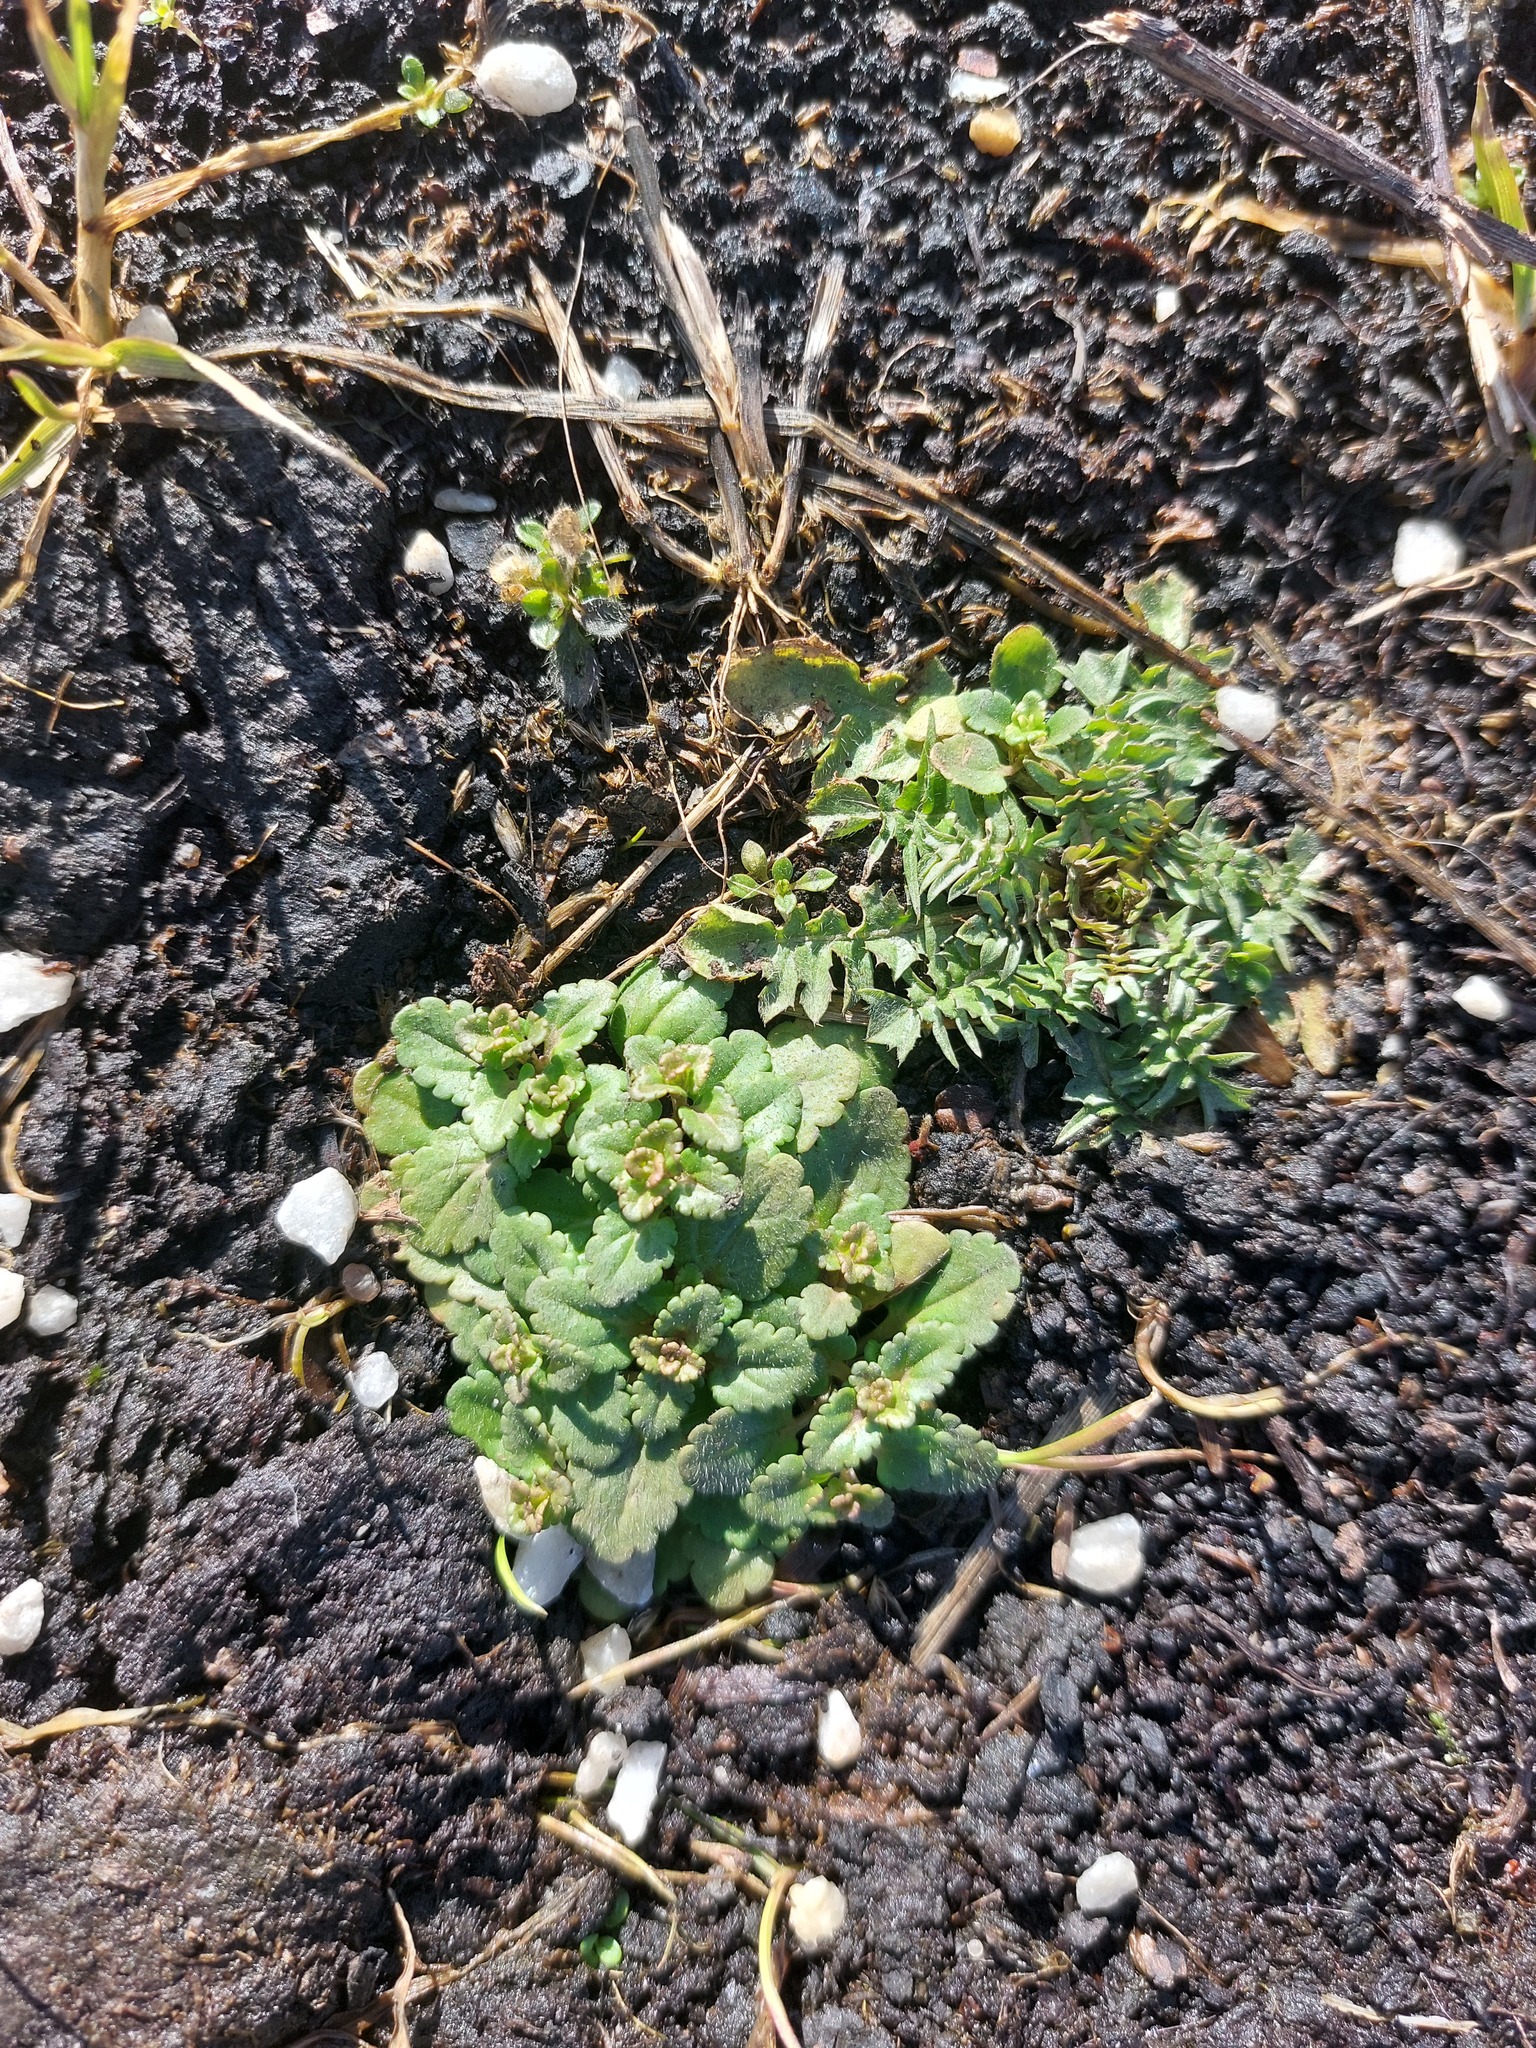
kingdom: Plantae
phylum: Tracheophyta
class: Magnoliopsida
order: Lamiales
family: Plantaginaceae
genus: Veronica
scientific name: Veronica arvensis
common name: Corn speedwell
